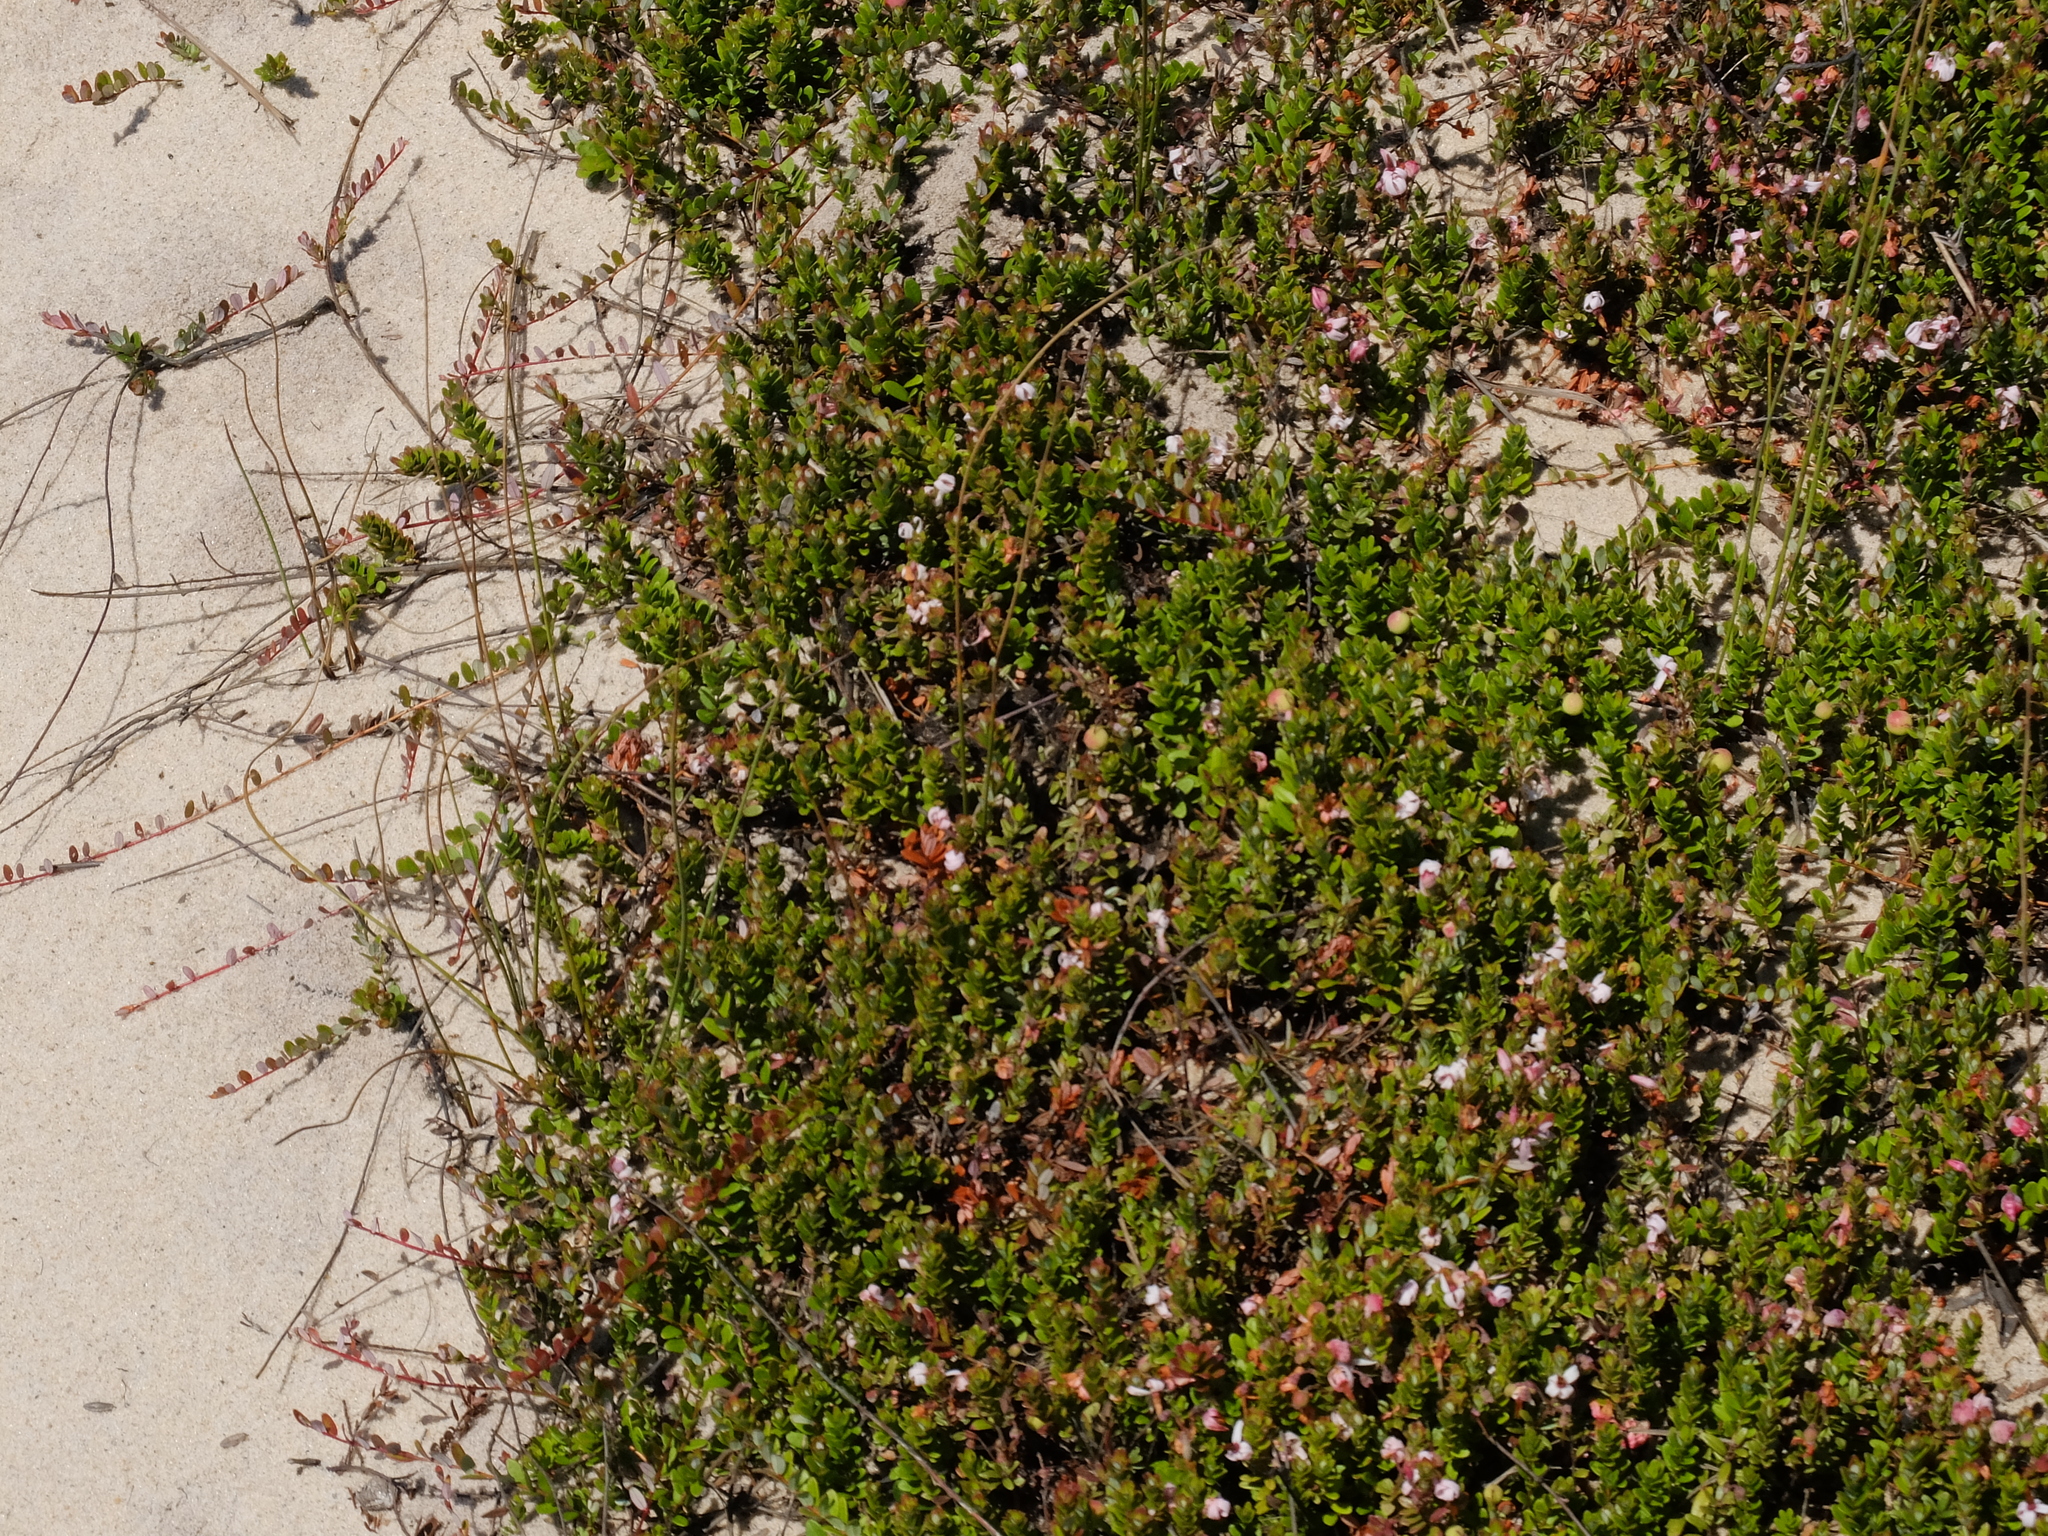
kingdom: Plantae
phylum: Tracheophyta
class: Magnoliopsida
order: Ericales
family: Ericaceae
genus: Vaccinium
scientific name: Vaccinium macrocarpon
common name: American cranberry
